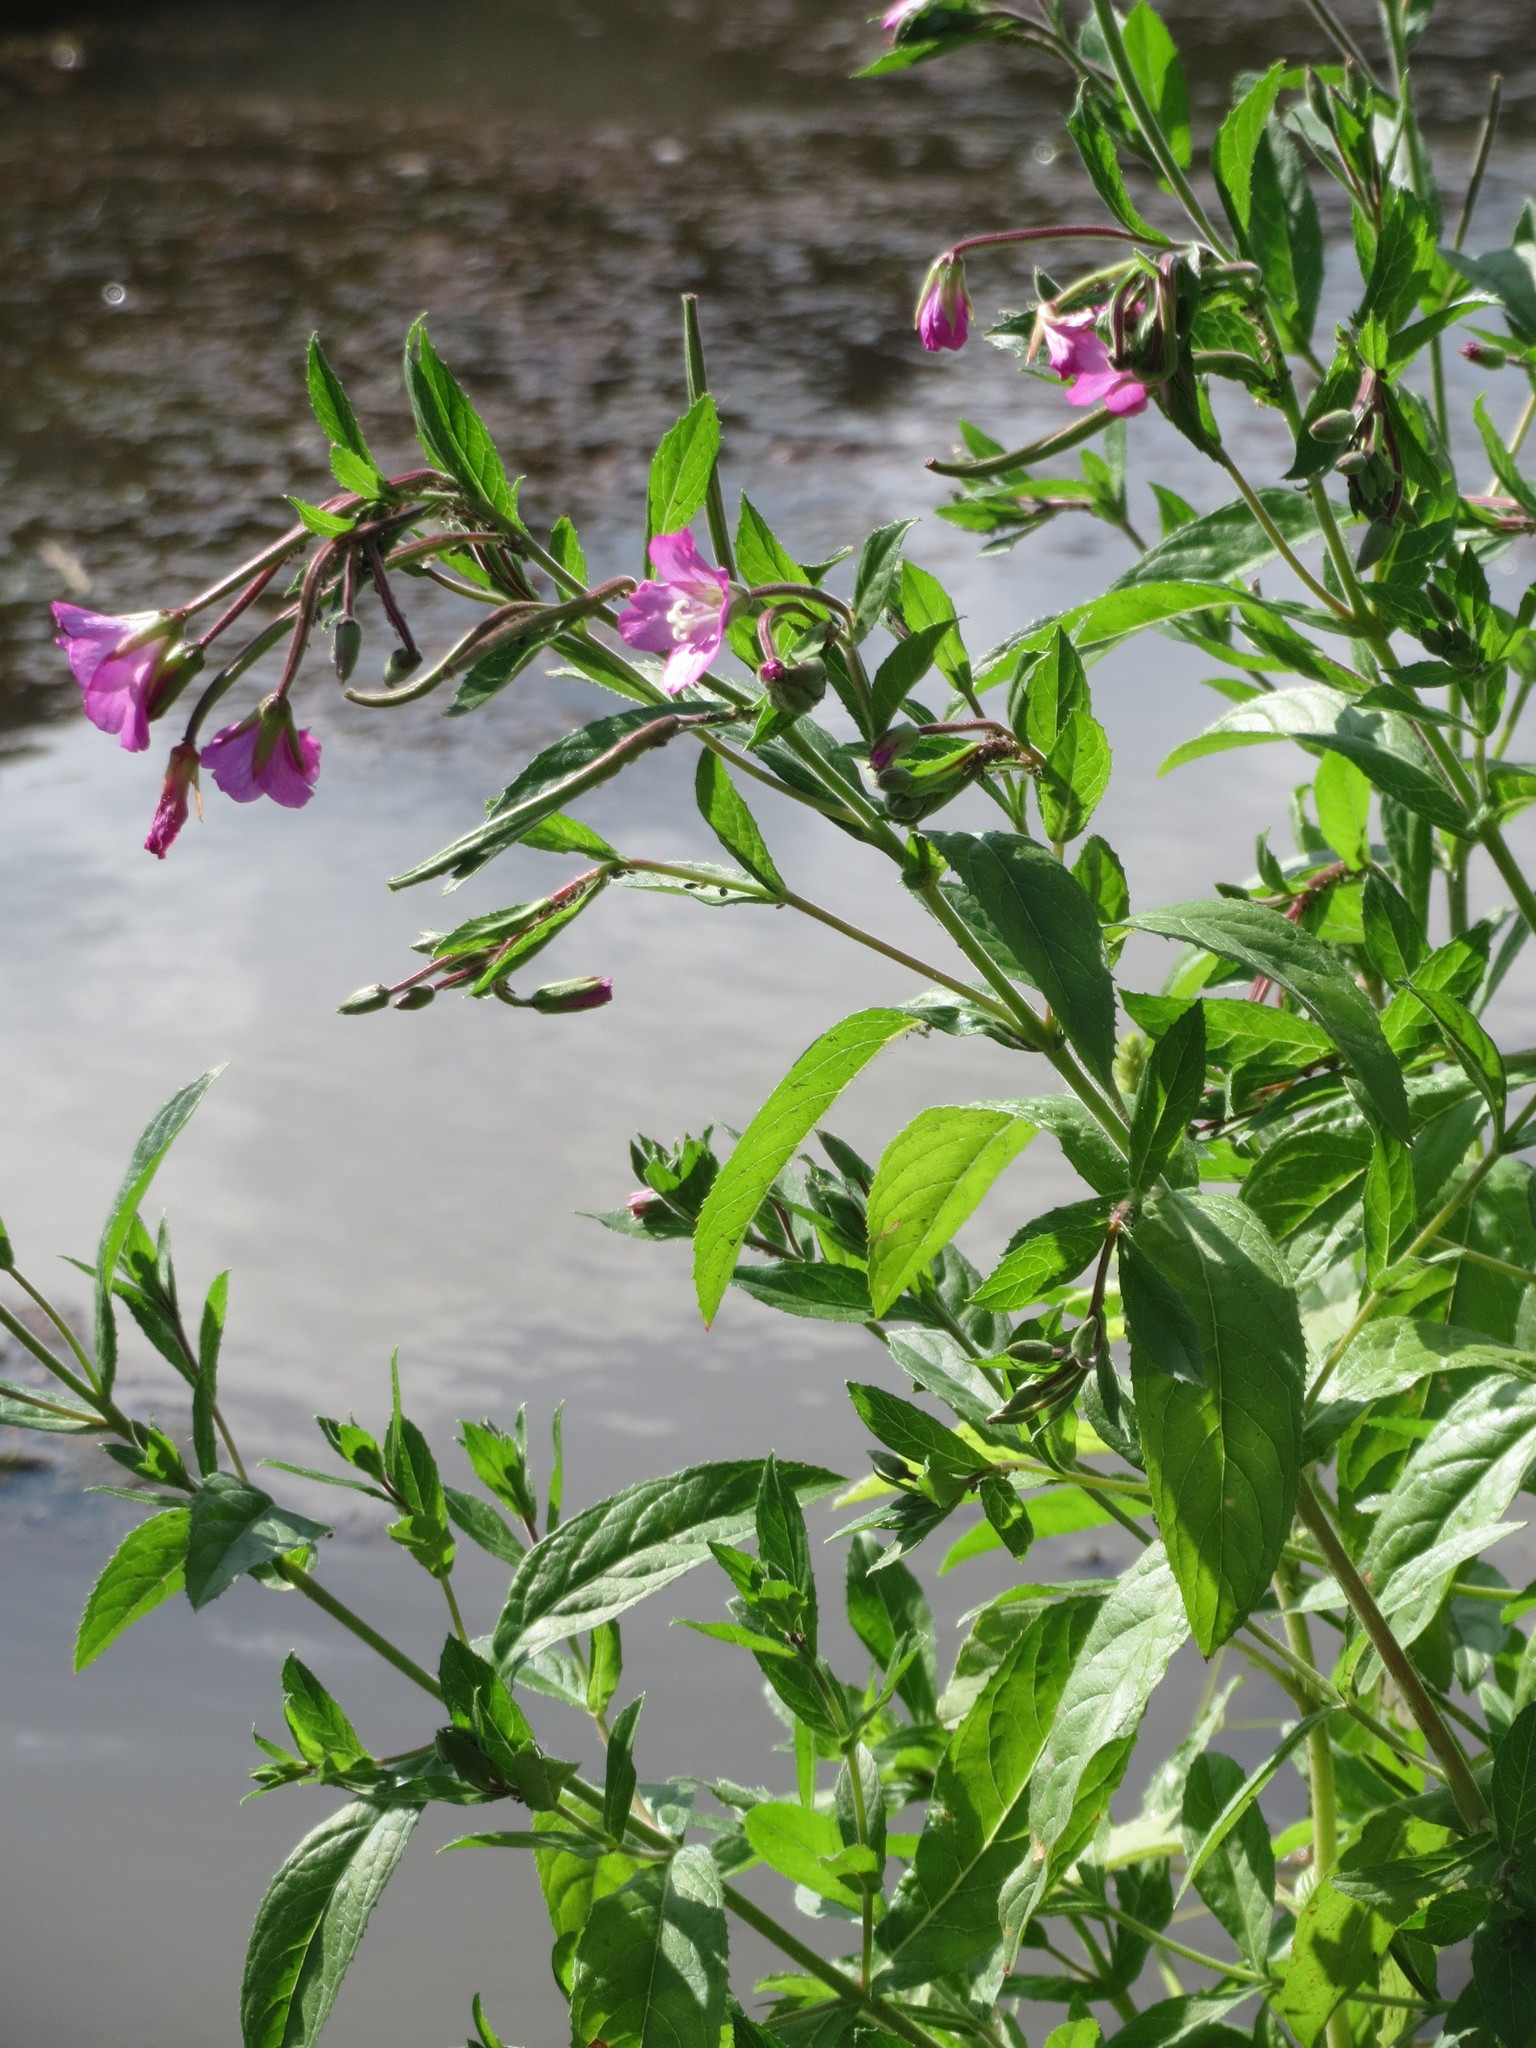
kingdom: Plantae
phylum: Tracheophyta
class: Magnoliopsida
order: Myrtales
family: Onagraceae
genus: Epilobium
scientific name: Epilobium hirsutum
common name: Great willowherb
